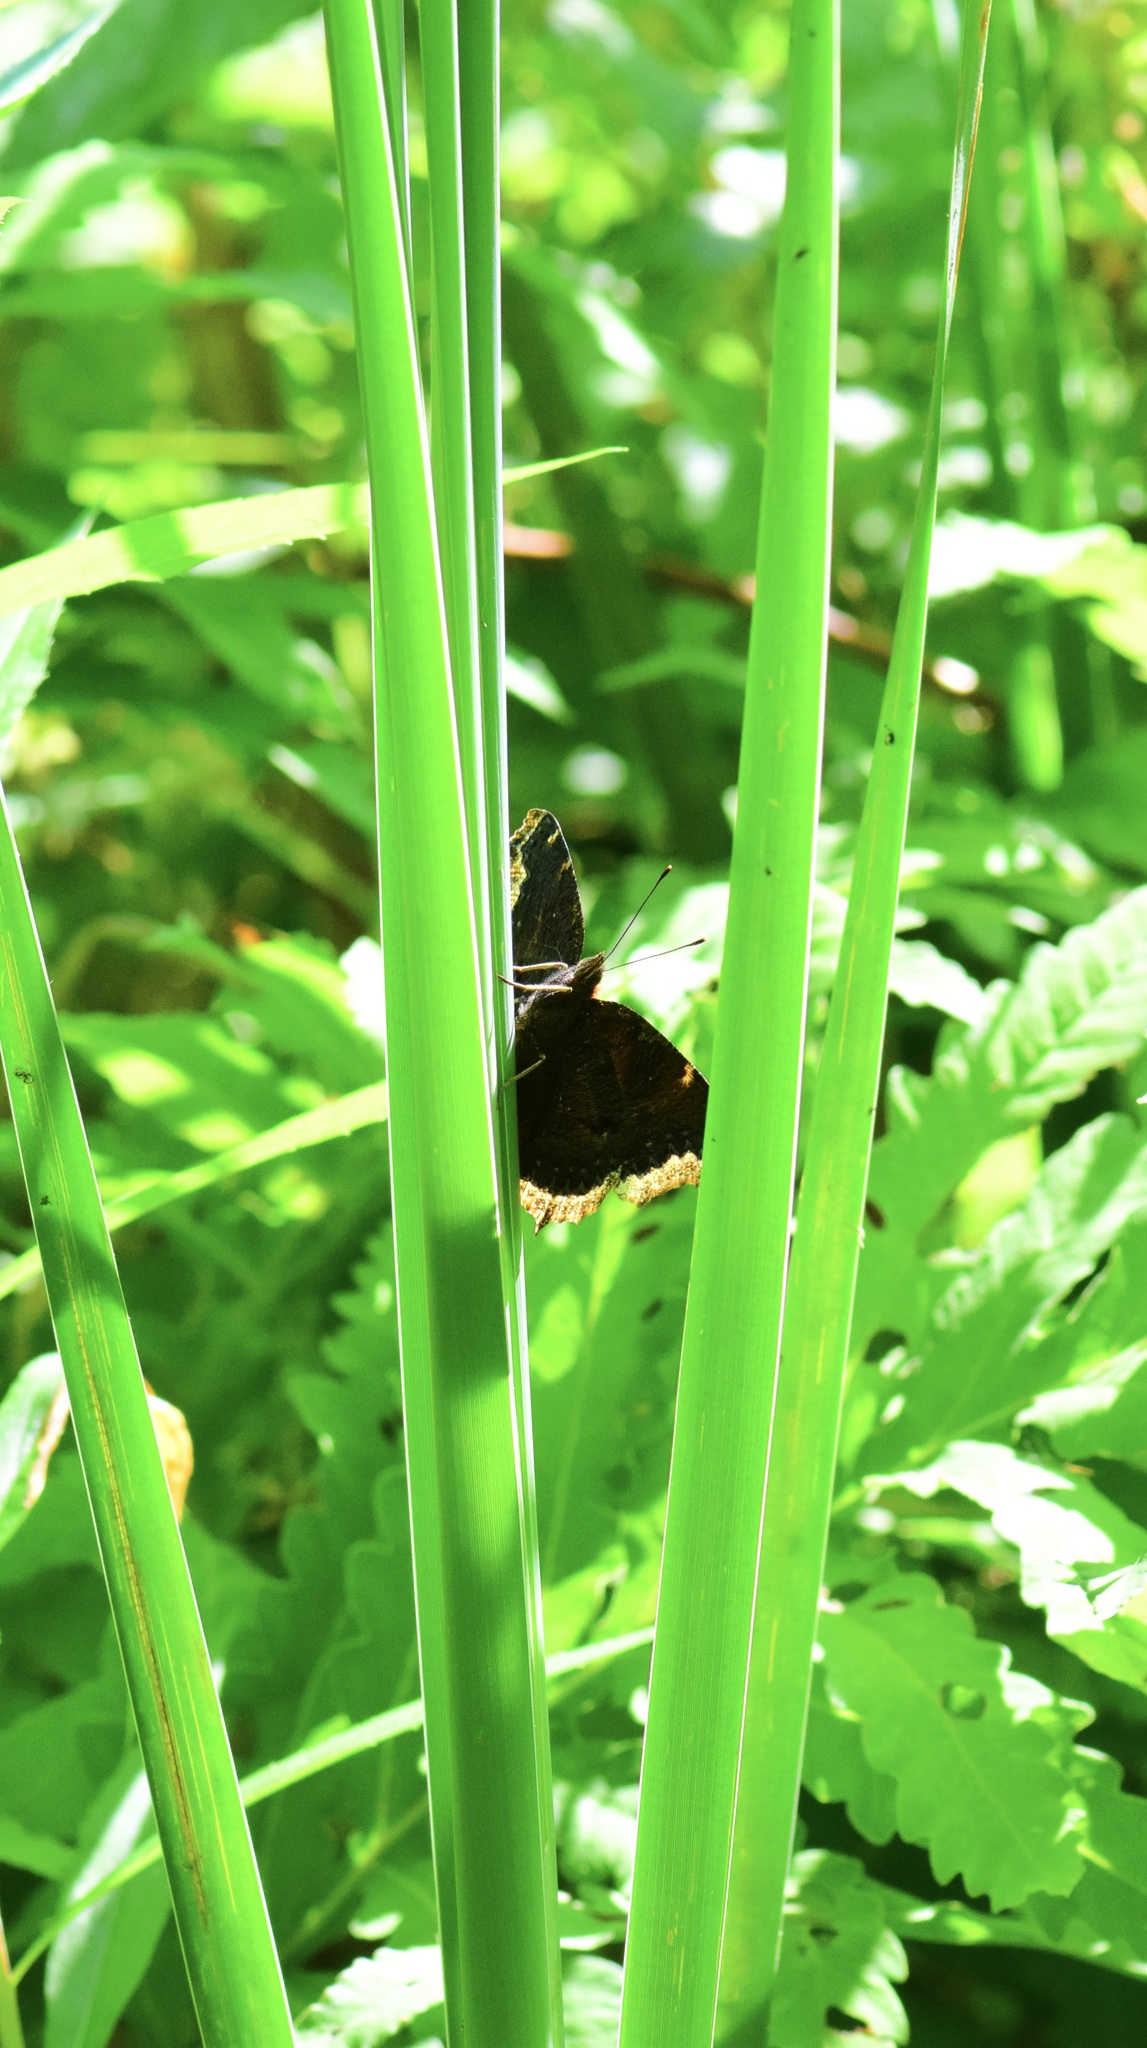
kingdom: Animalia
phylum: Arthropoda
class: Insecta
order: Lepidoptera
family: Nymphalidae
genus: Nymphalis
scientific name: Nymphalis antiopa
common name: Camberwell beauty
